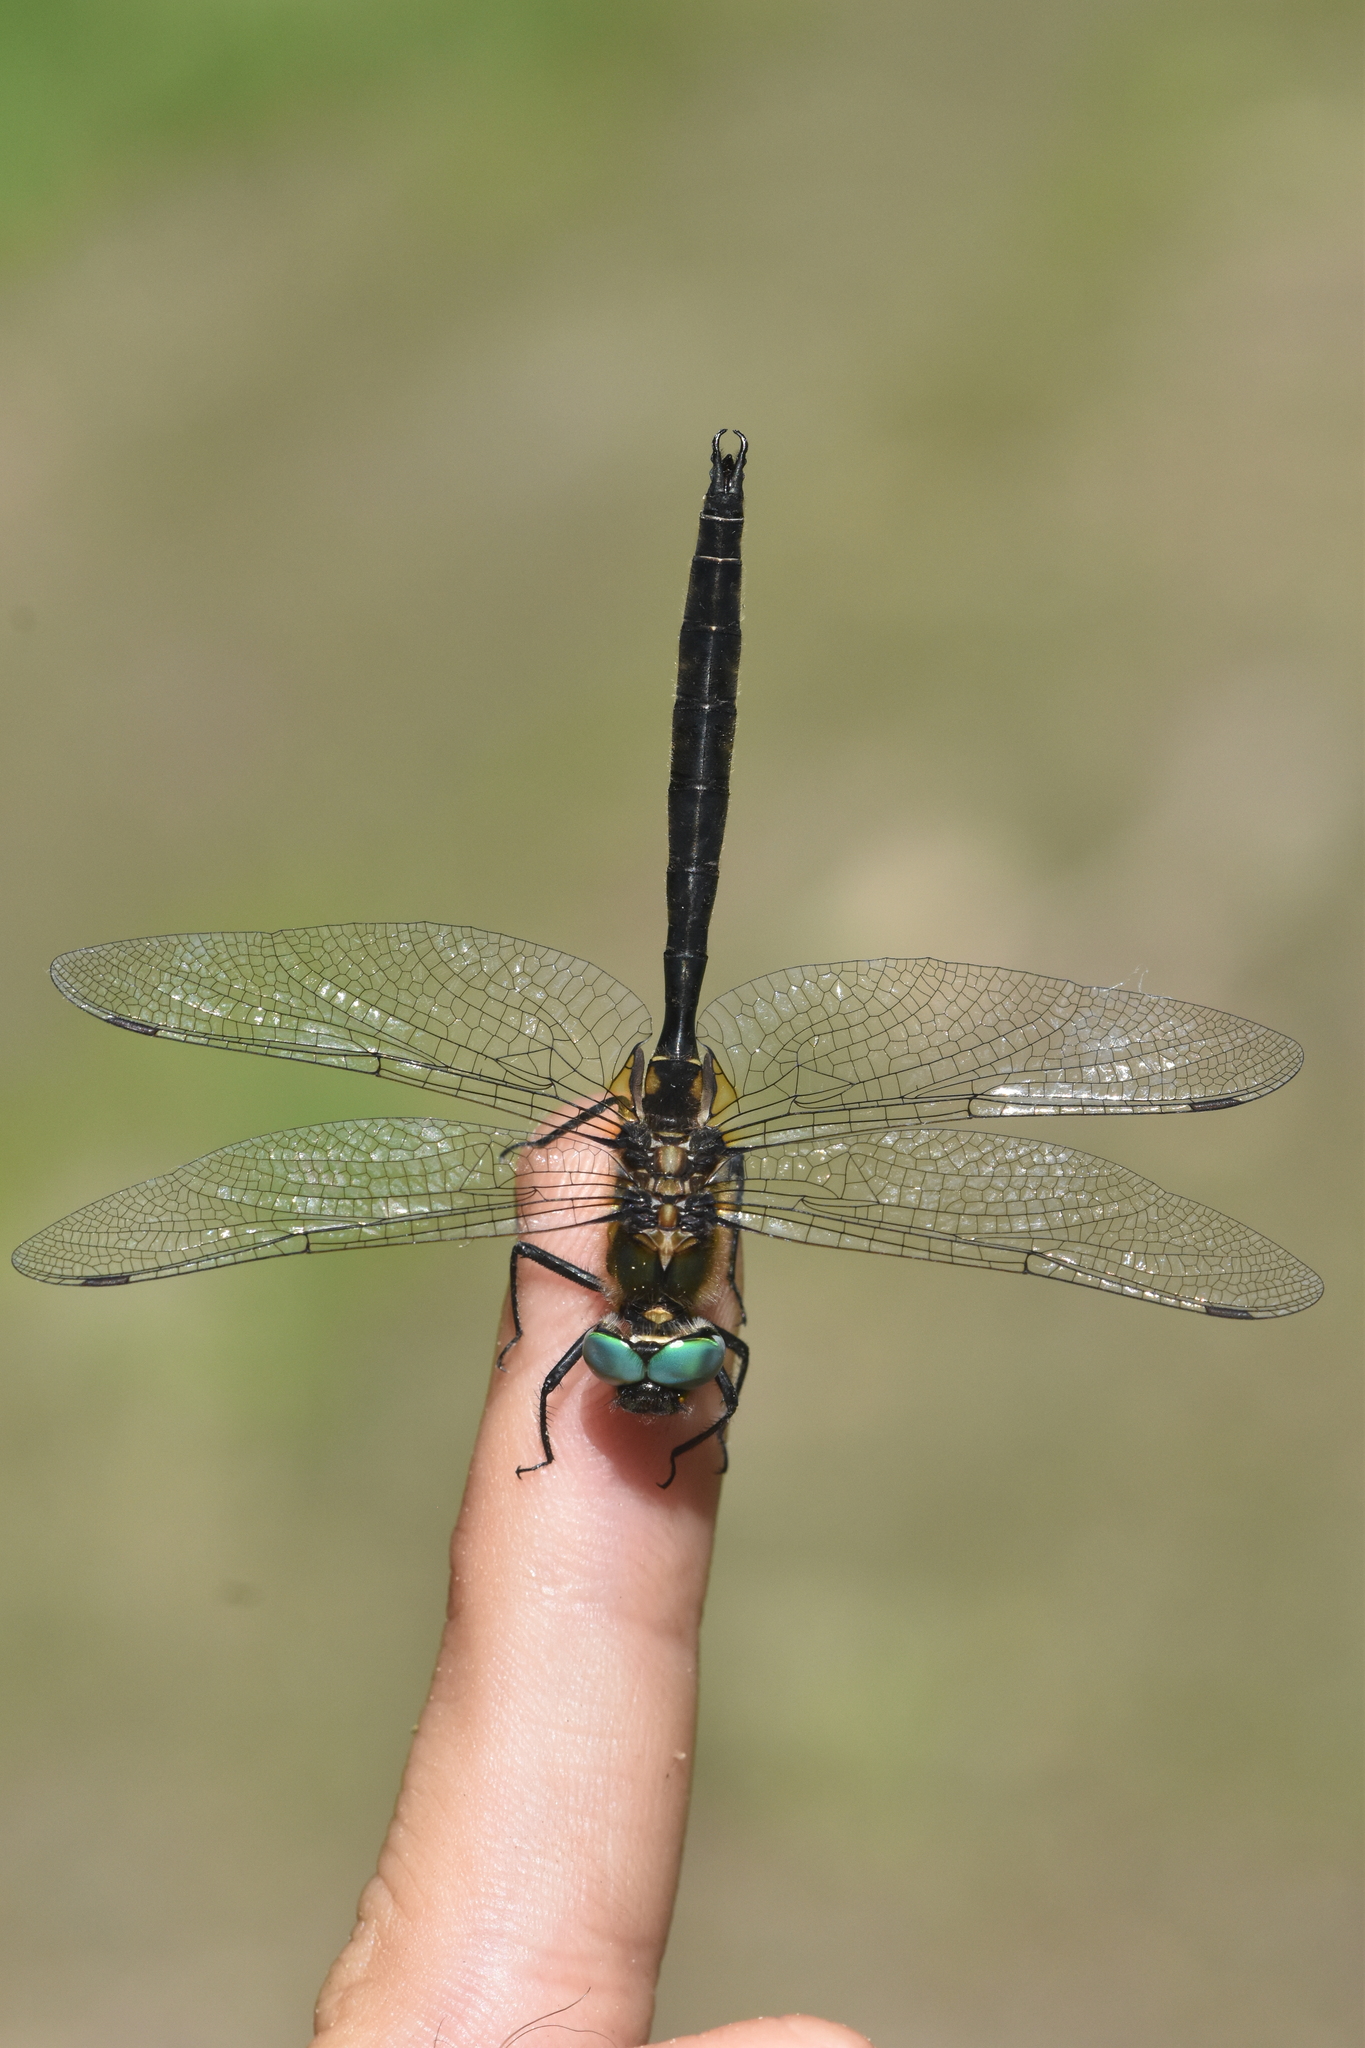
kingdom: Animalia
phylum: Arthropoda
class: Insecta
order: Odonata
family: Corduliidae
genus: Somatochlora
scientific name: Somatochlora semicircularis
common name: Mountain emerald
